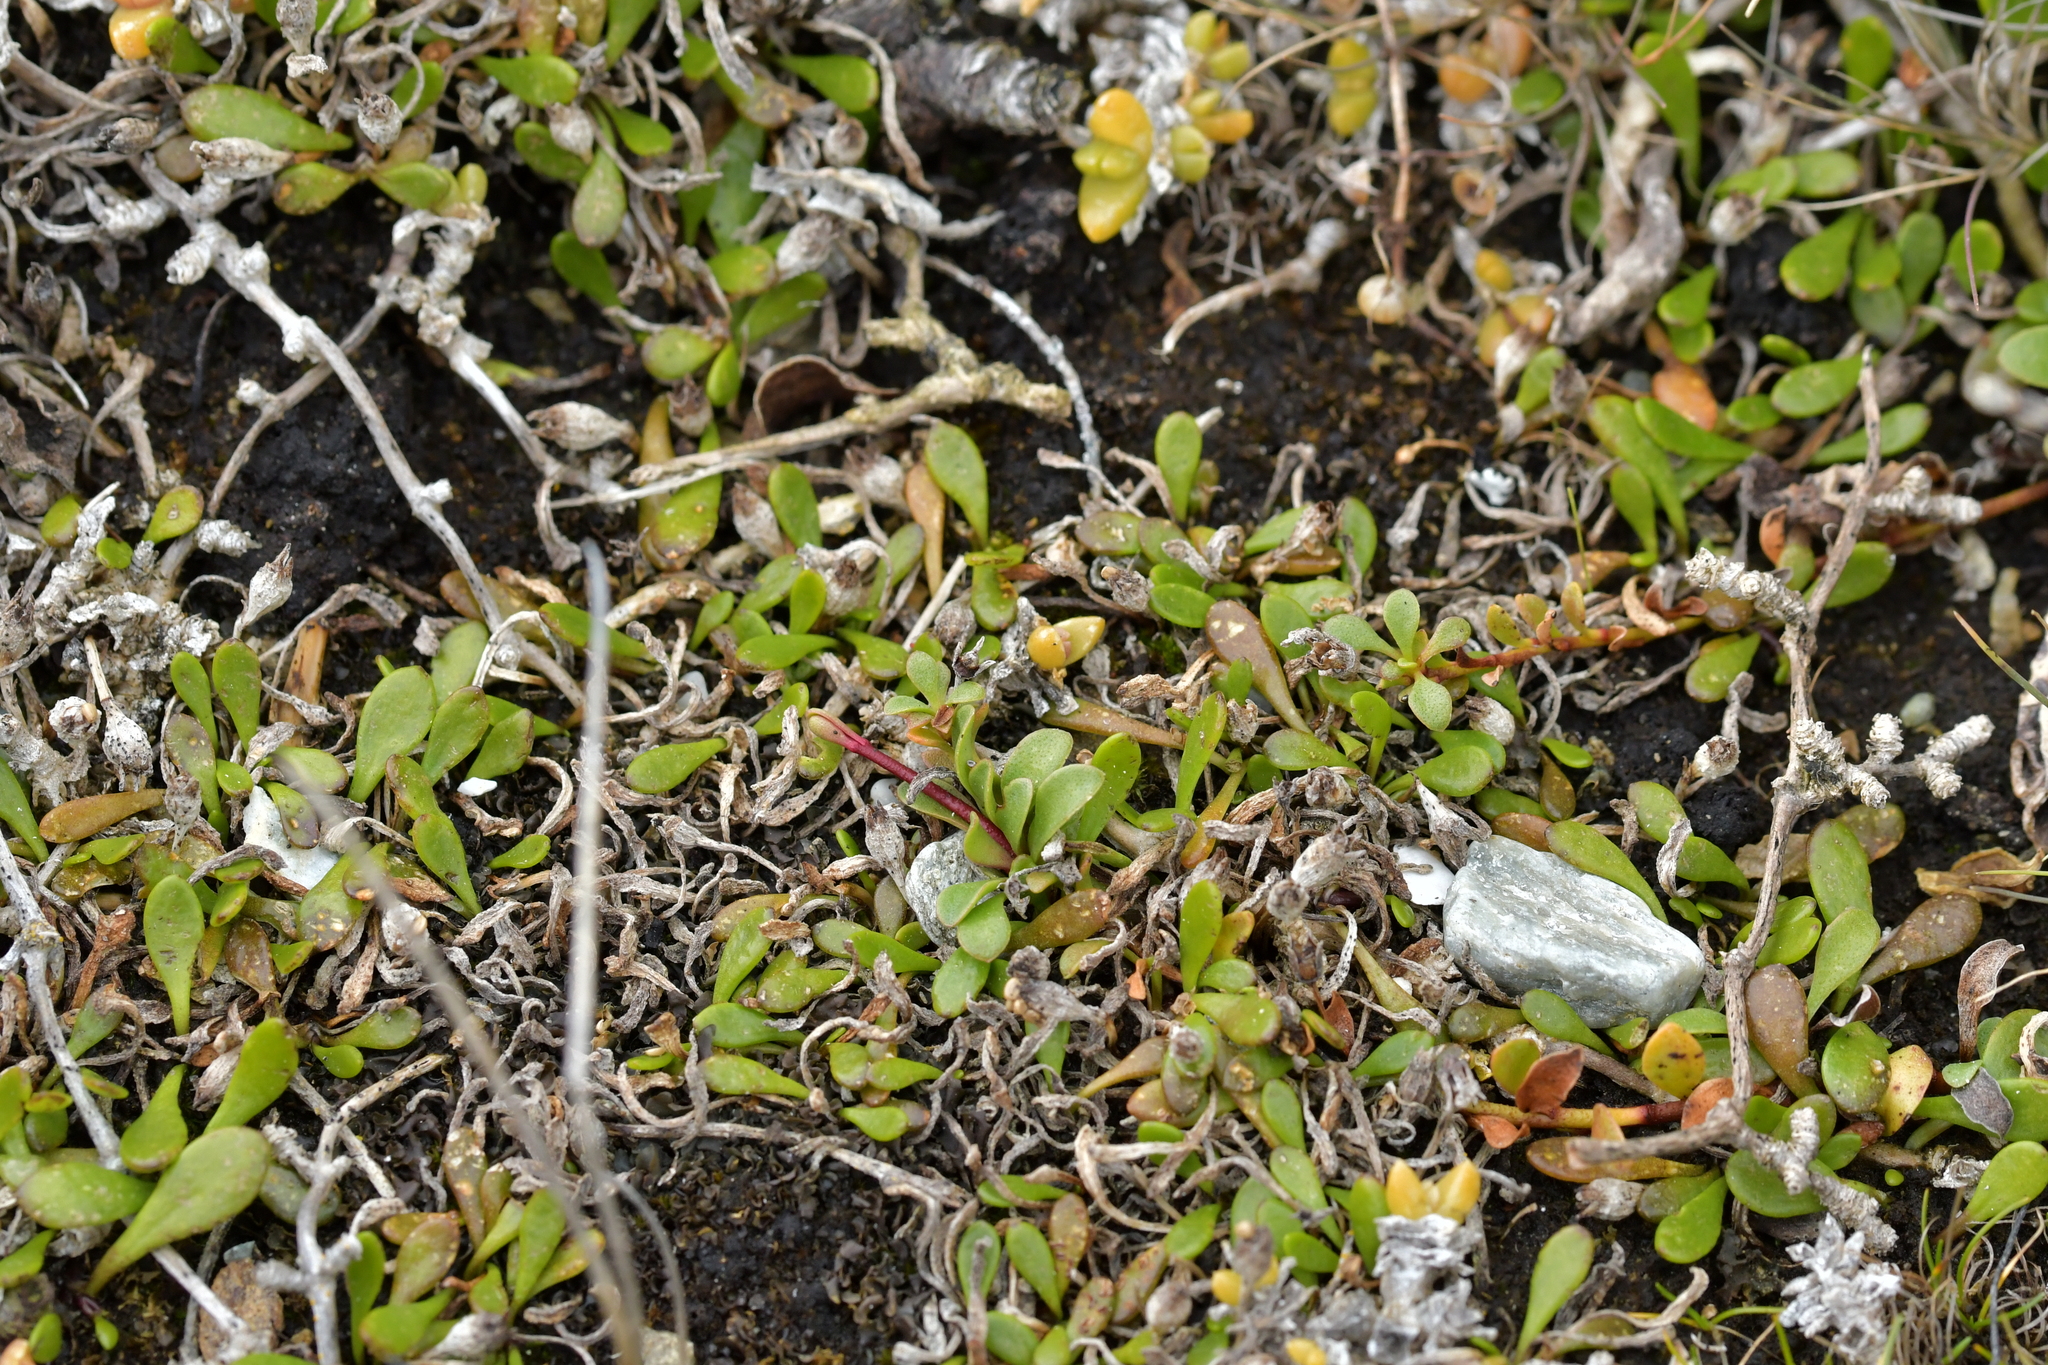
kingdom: Plantae
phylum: Tracheophyta
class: Magnoliopsida
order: Ericales
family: Primulaceae
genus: Samolus
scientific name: Samolus repens
